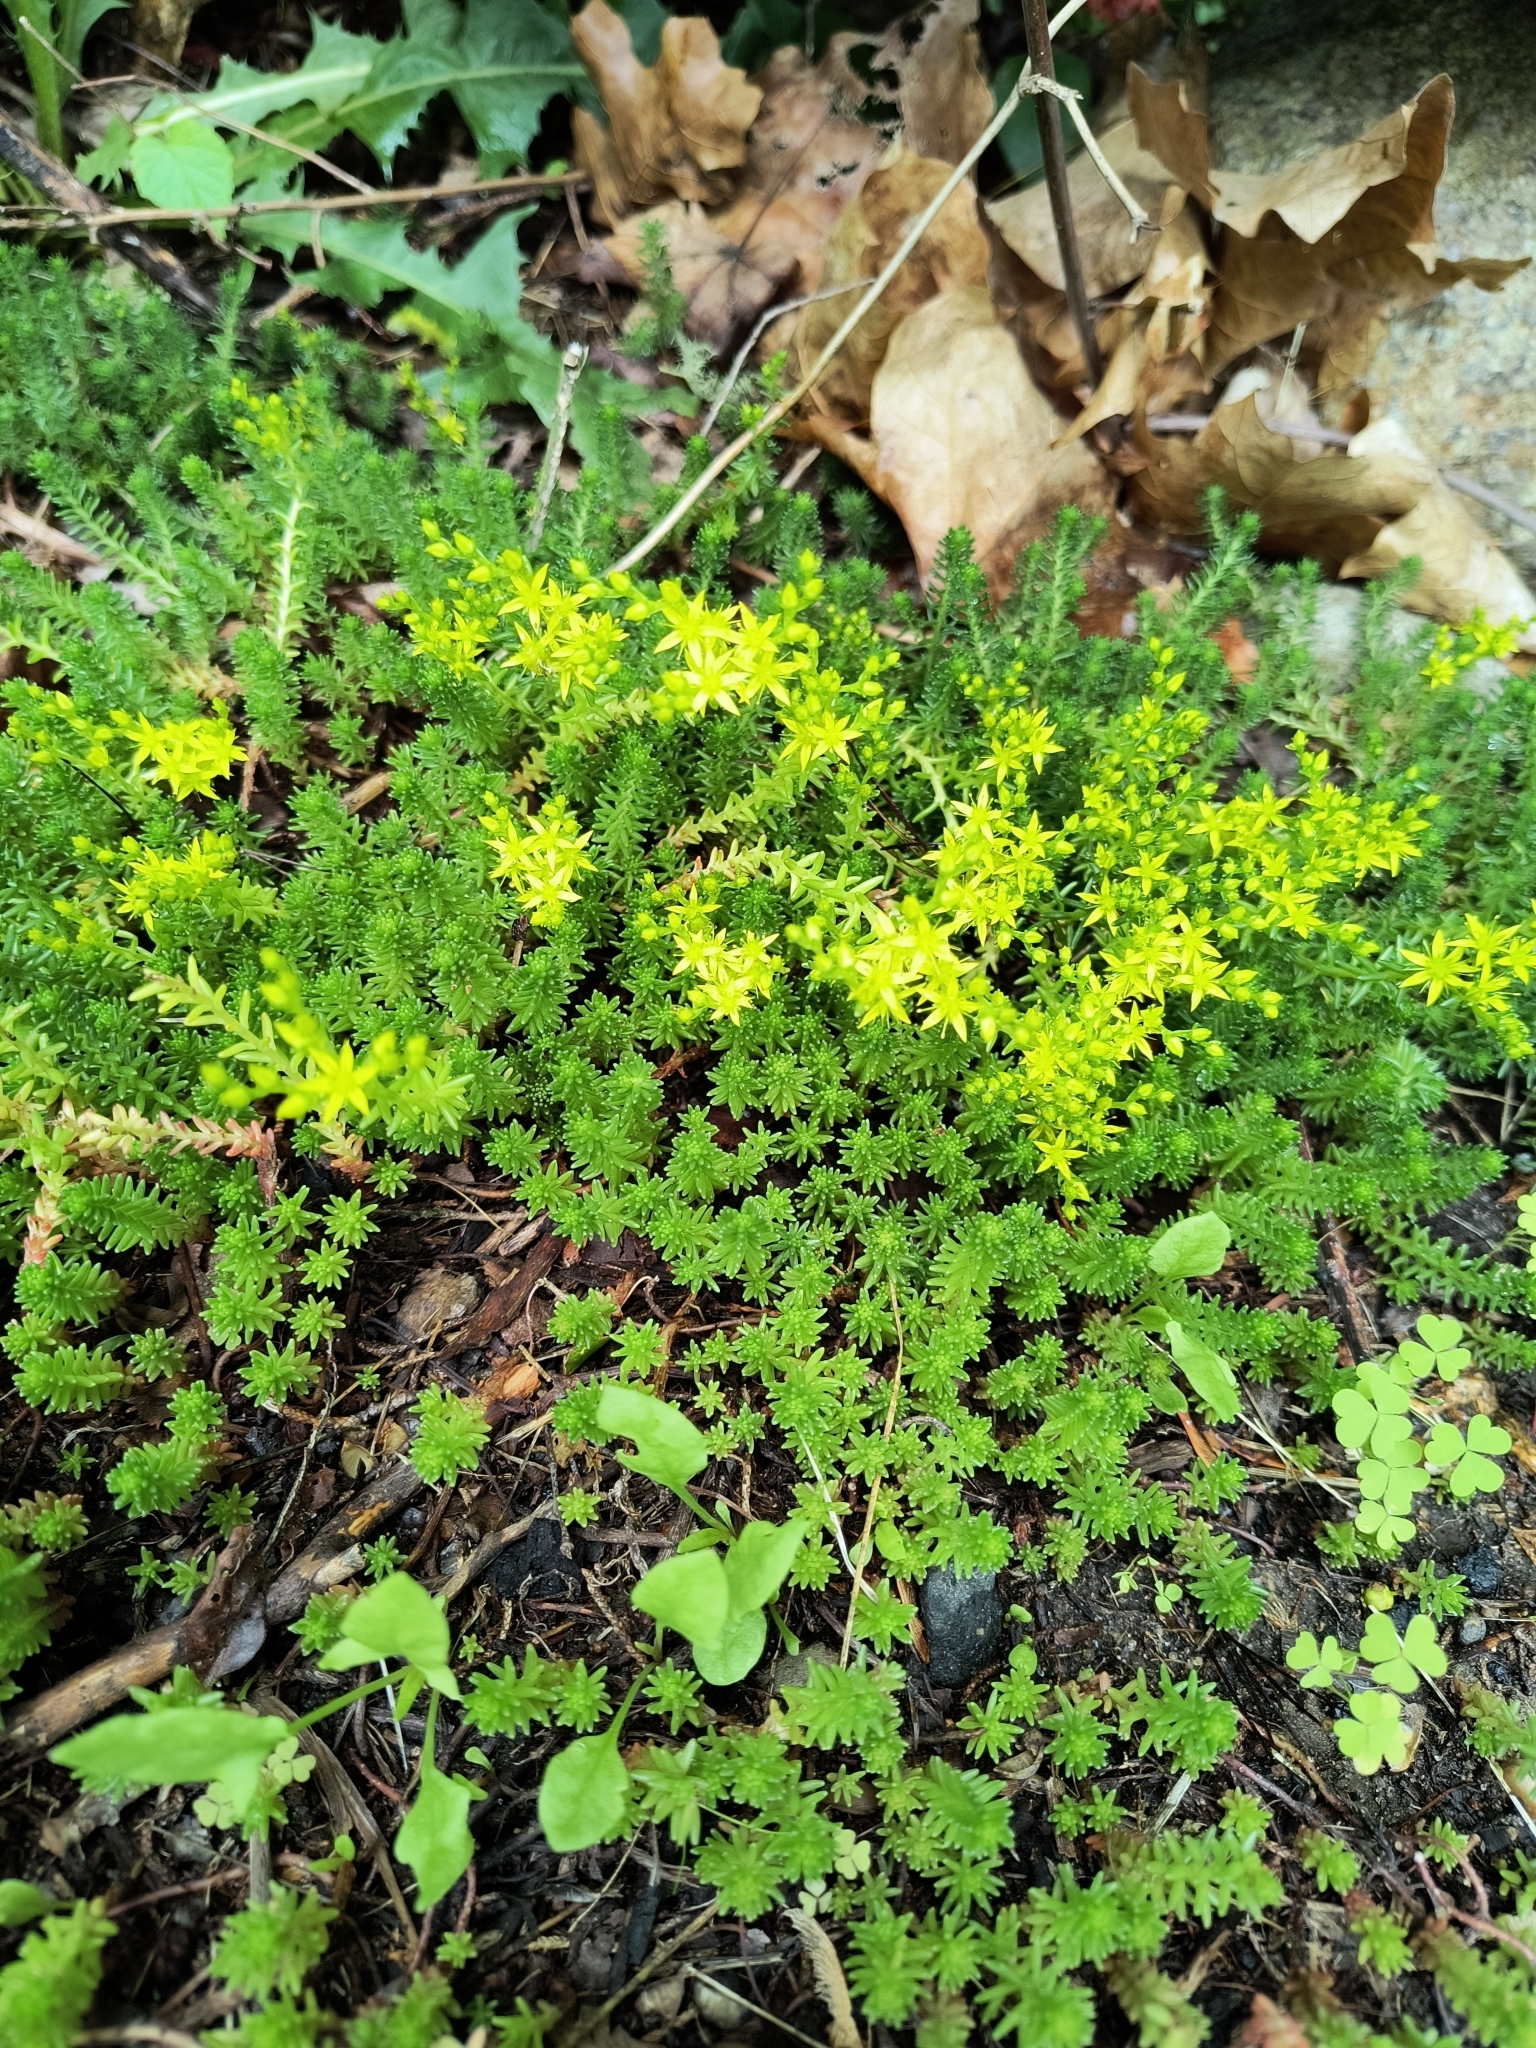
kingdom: Plantae
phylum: Tracheophyta
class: Magnoliopsida
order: Saxifragales
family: Crassulaceae
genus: Sedum
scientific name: Sedum sexangulare
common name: Tasteless stonecrop
